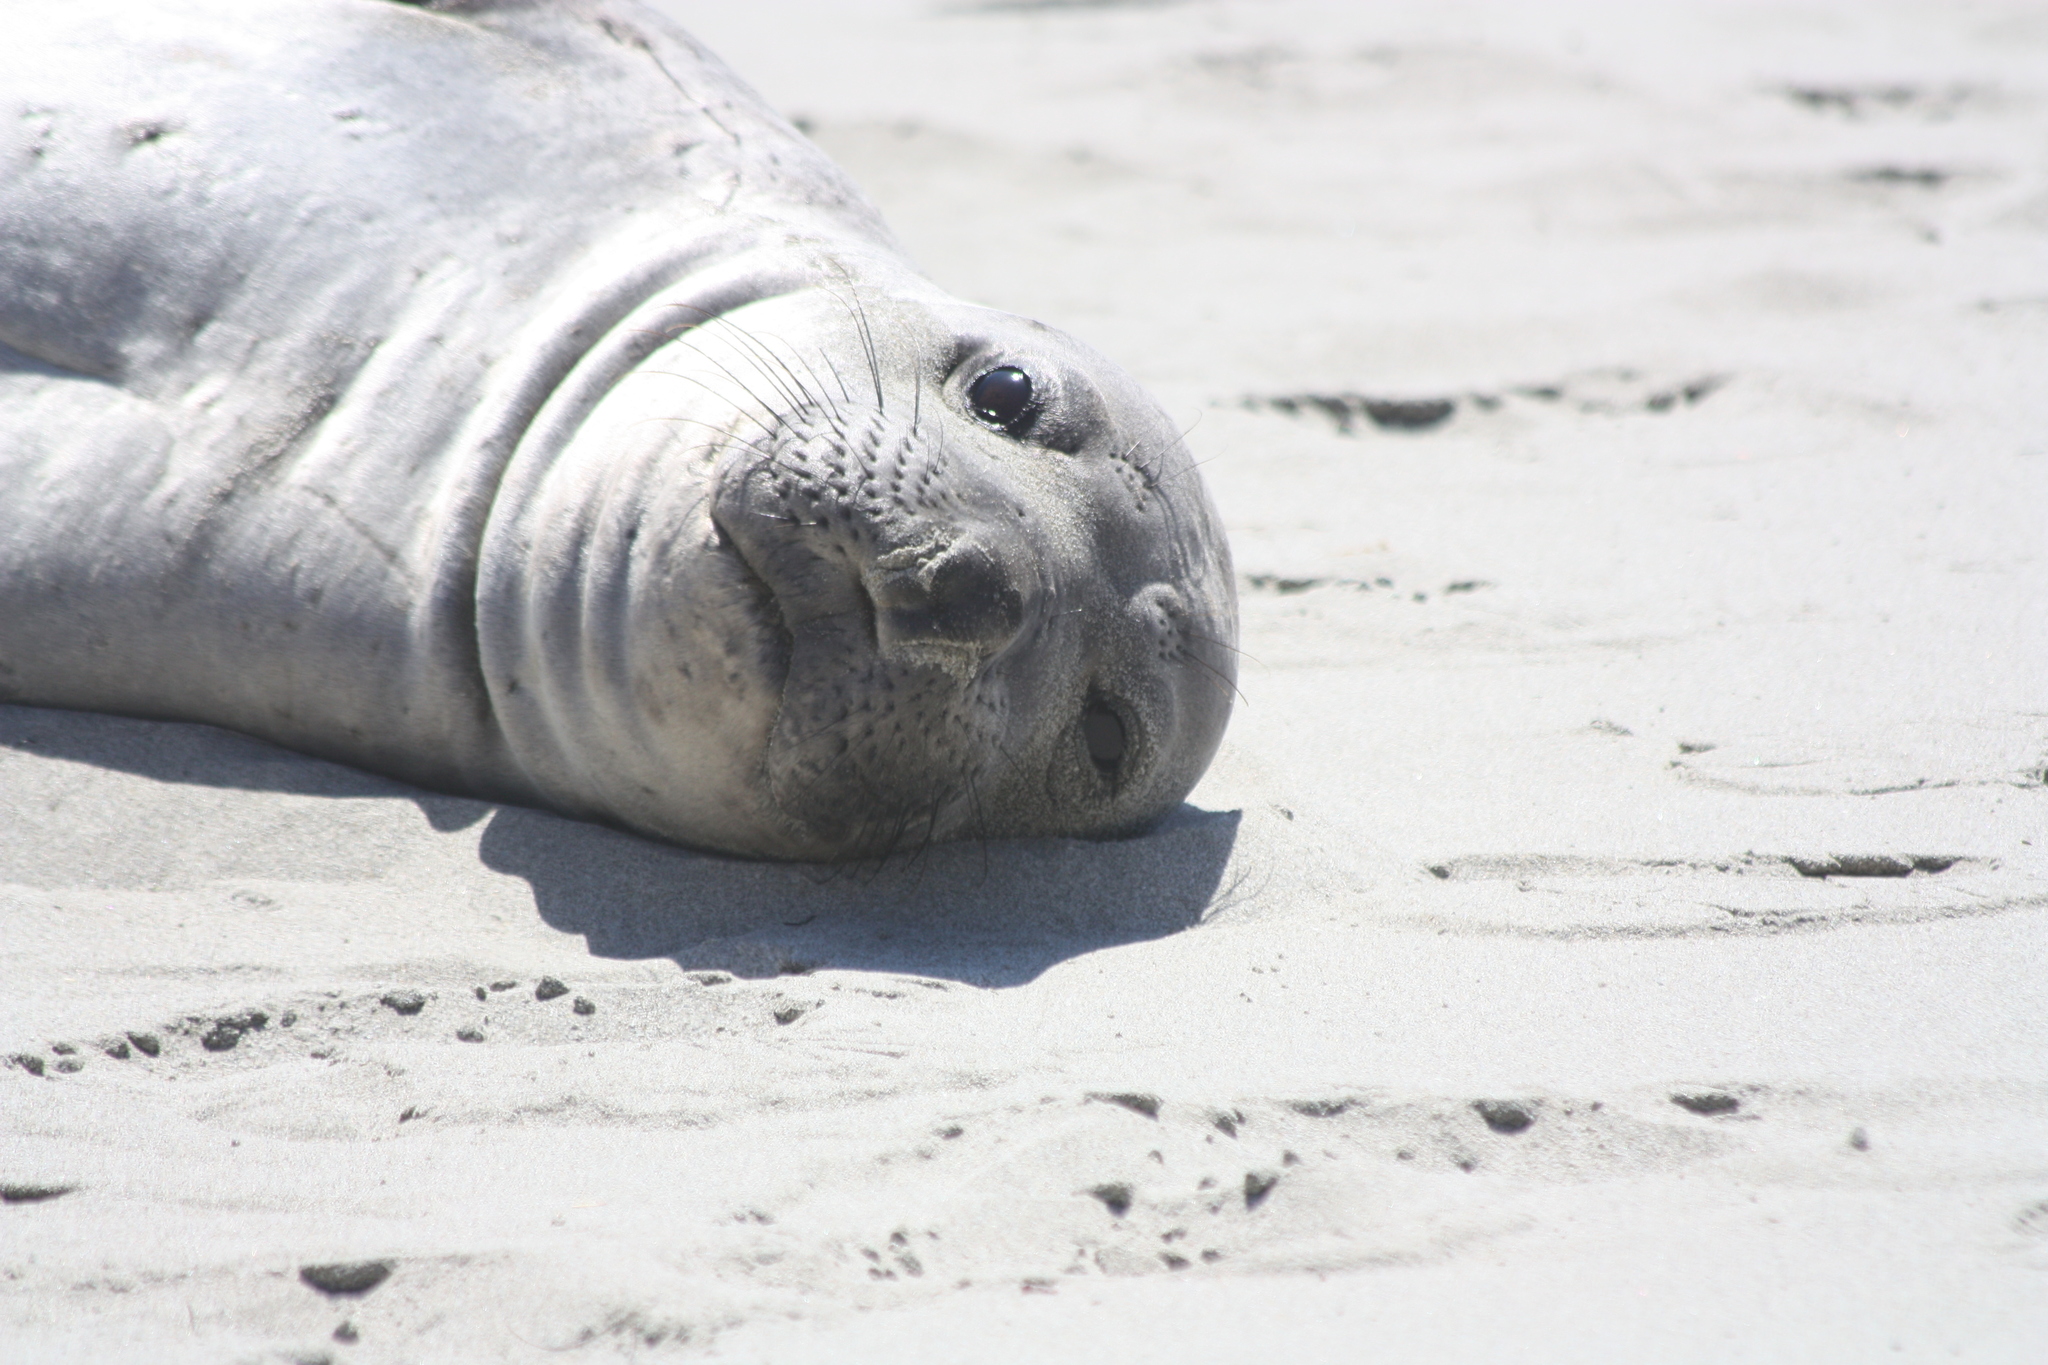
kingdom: Animalia
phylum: Chordata
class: Mammalia
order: Carnivora
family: Phocidae
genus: Mirounga
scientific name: Mirounga angustirostris
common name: Northern elephant seal
